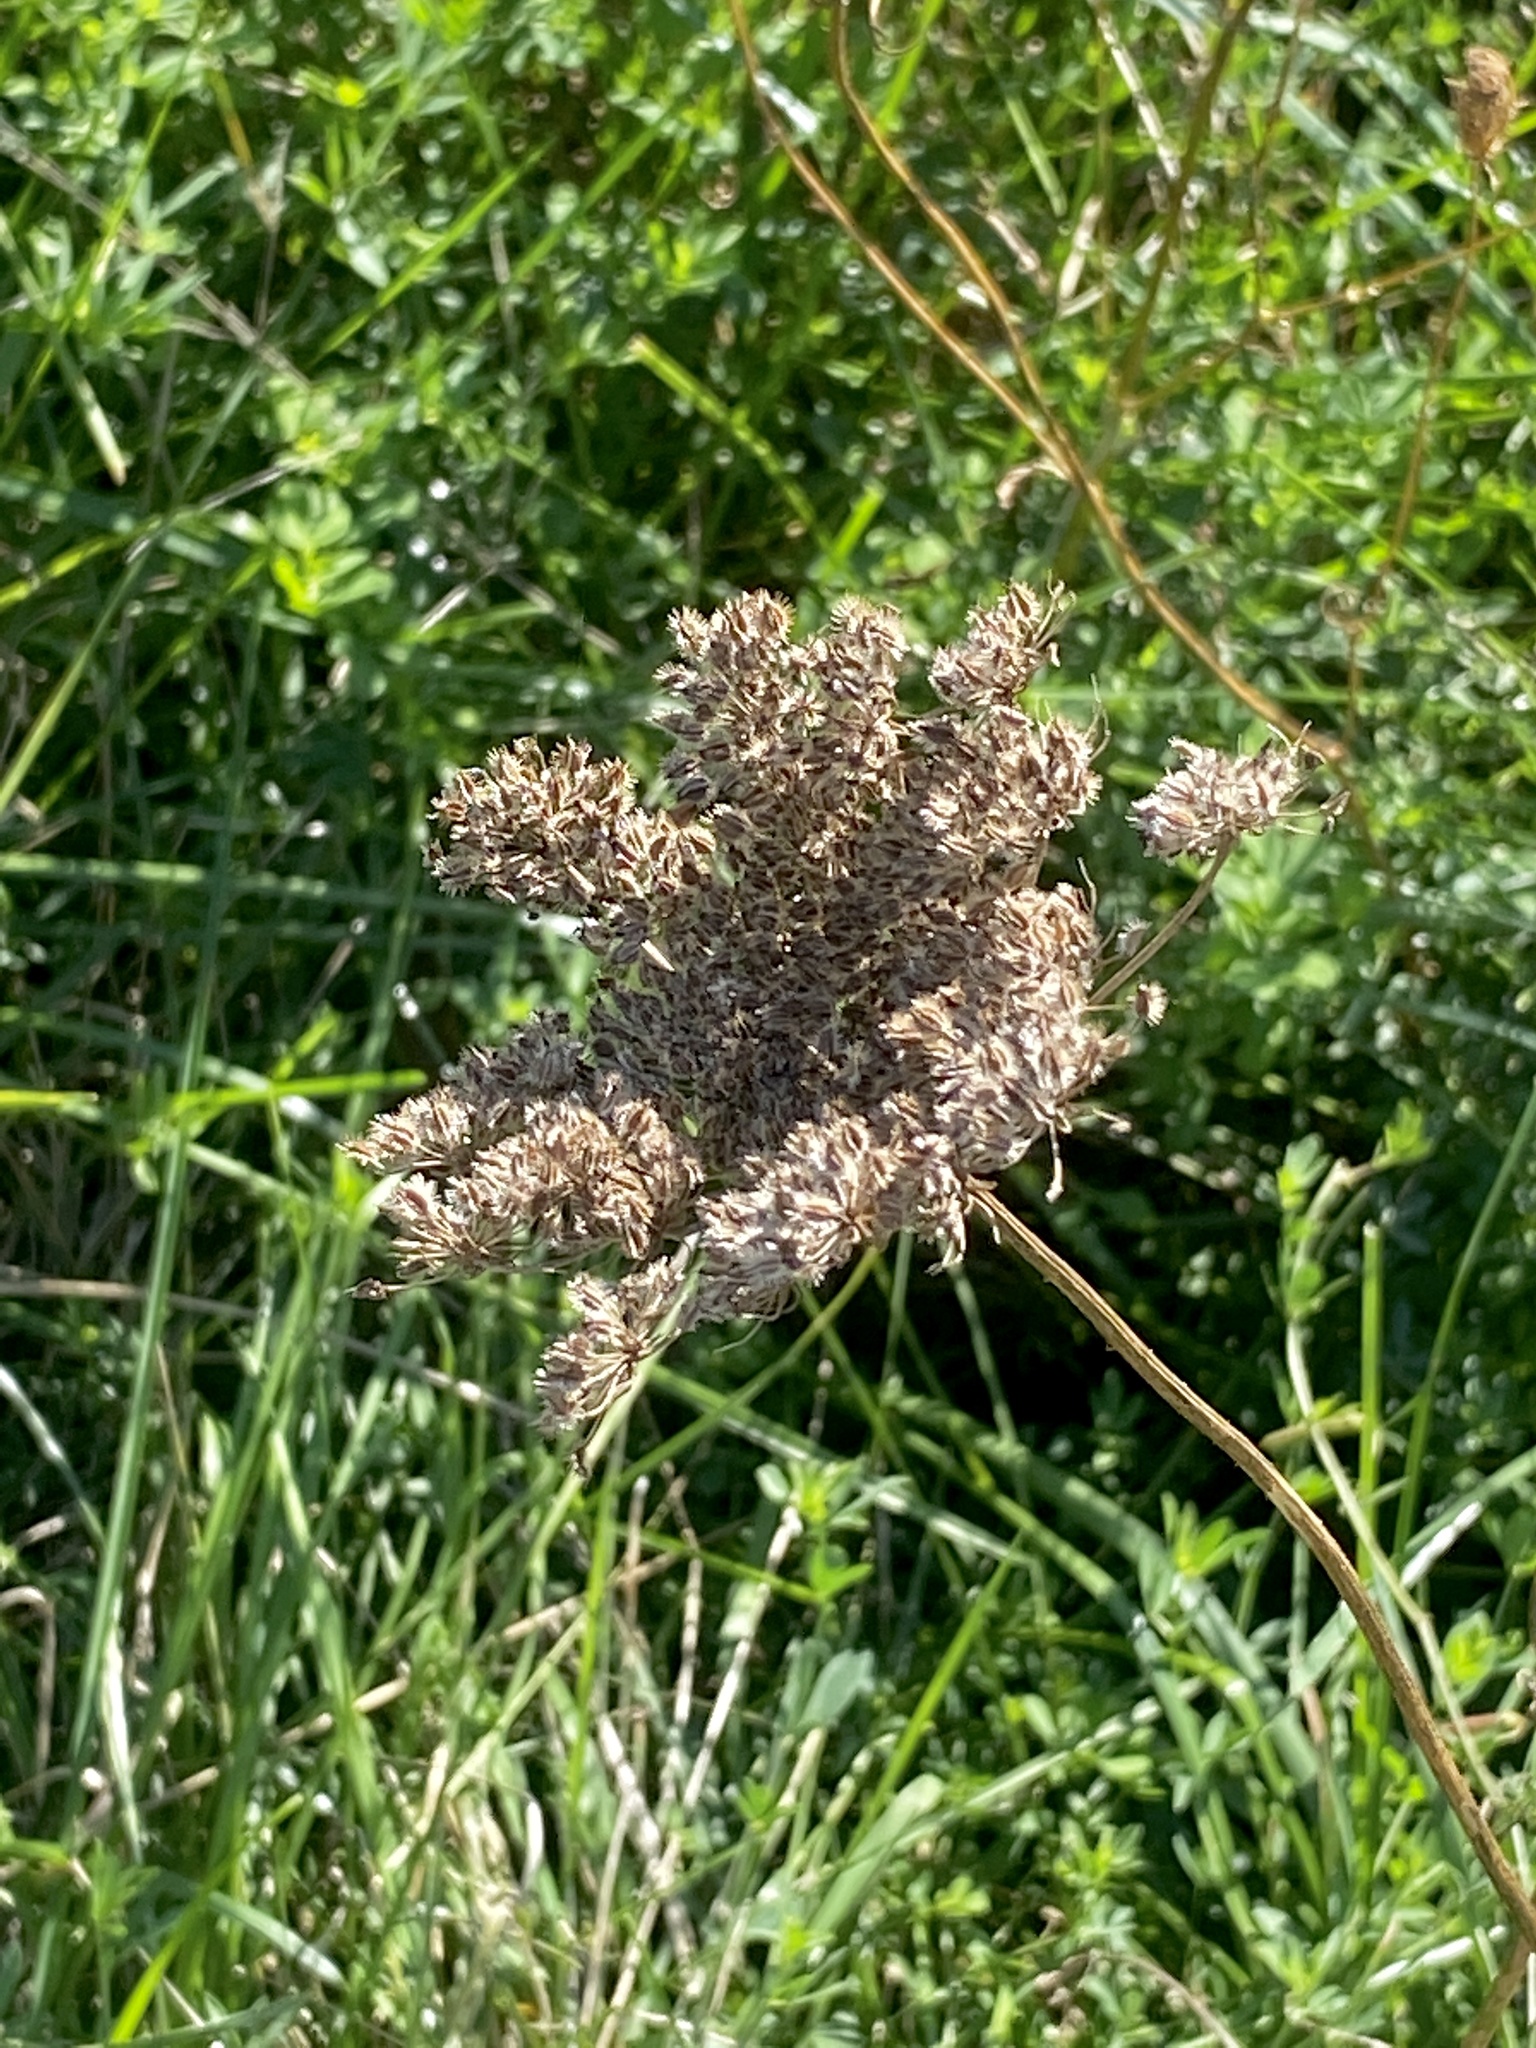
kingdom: Plantae
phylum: Tracheophyta
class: Magnoliopsida
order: Apiales
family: Apiaceae
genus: Daucus
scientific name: Daucus carota
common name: Wild carrot
